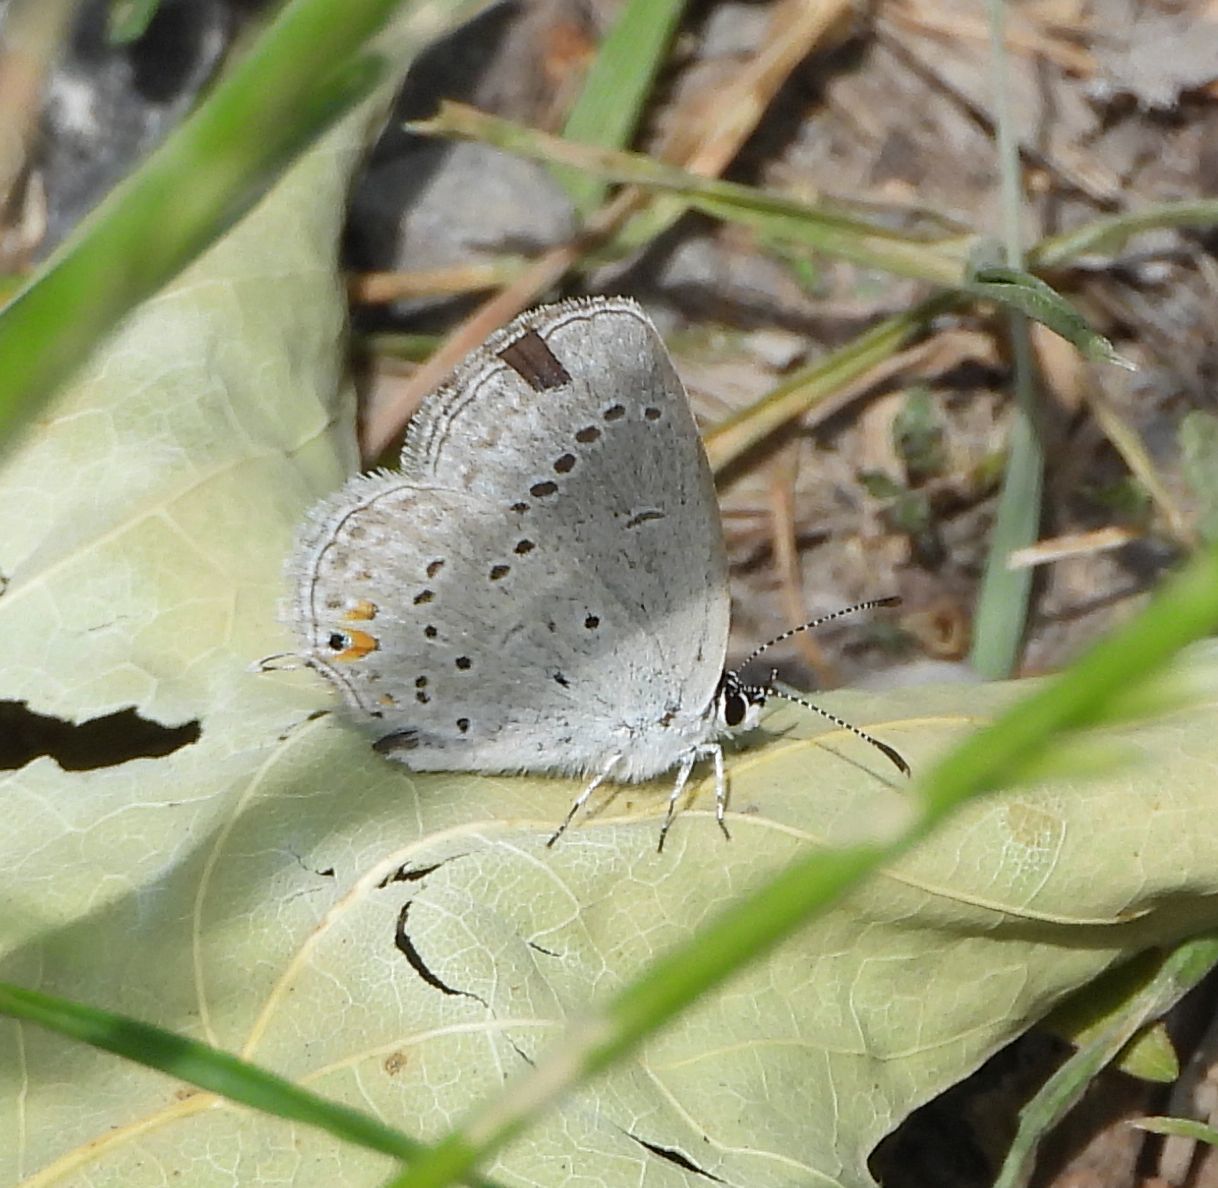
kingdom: Animalia
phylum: Arthropoda
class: Insecta
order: Lepidoptera
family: Lycaenidae
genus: Elkalyce
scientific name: Elkalyce comyntas
